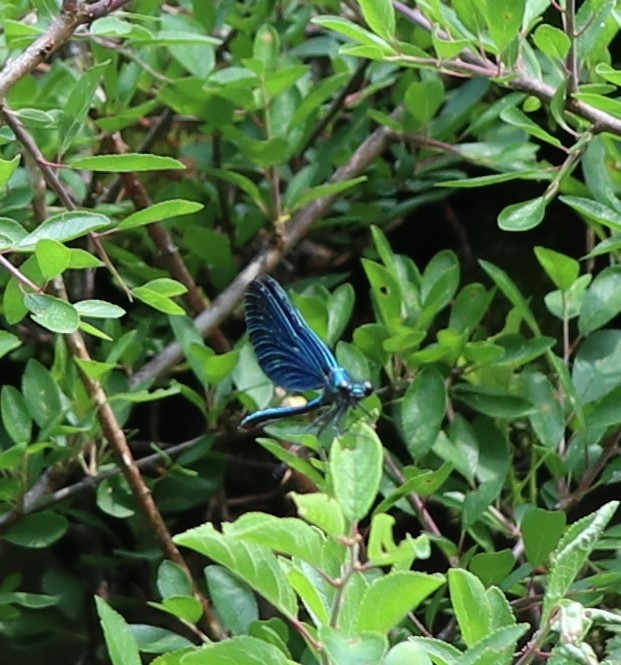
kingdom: Animalia
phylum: Arthropoda
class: Insecta
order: Odonata
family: Calopterygidae
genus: Calopteryx
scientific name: Calopteryx virgo
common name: Beautiful demoiselle
